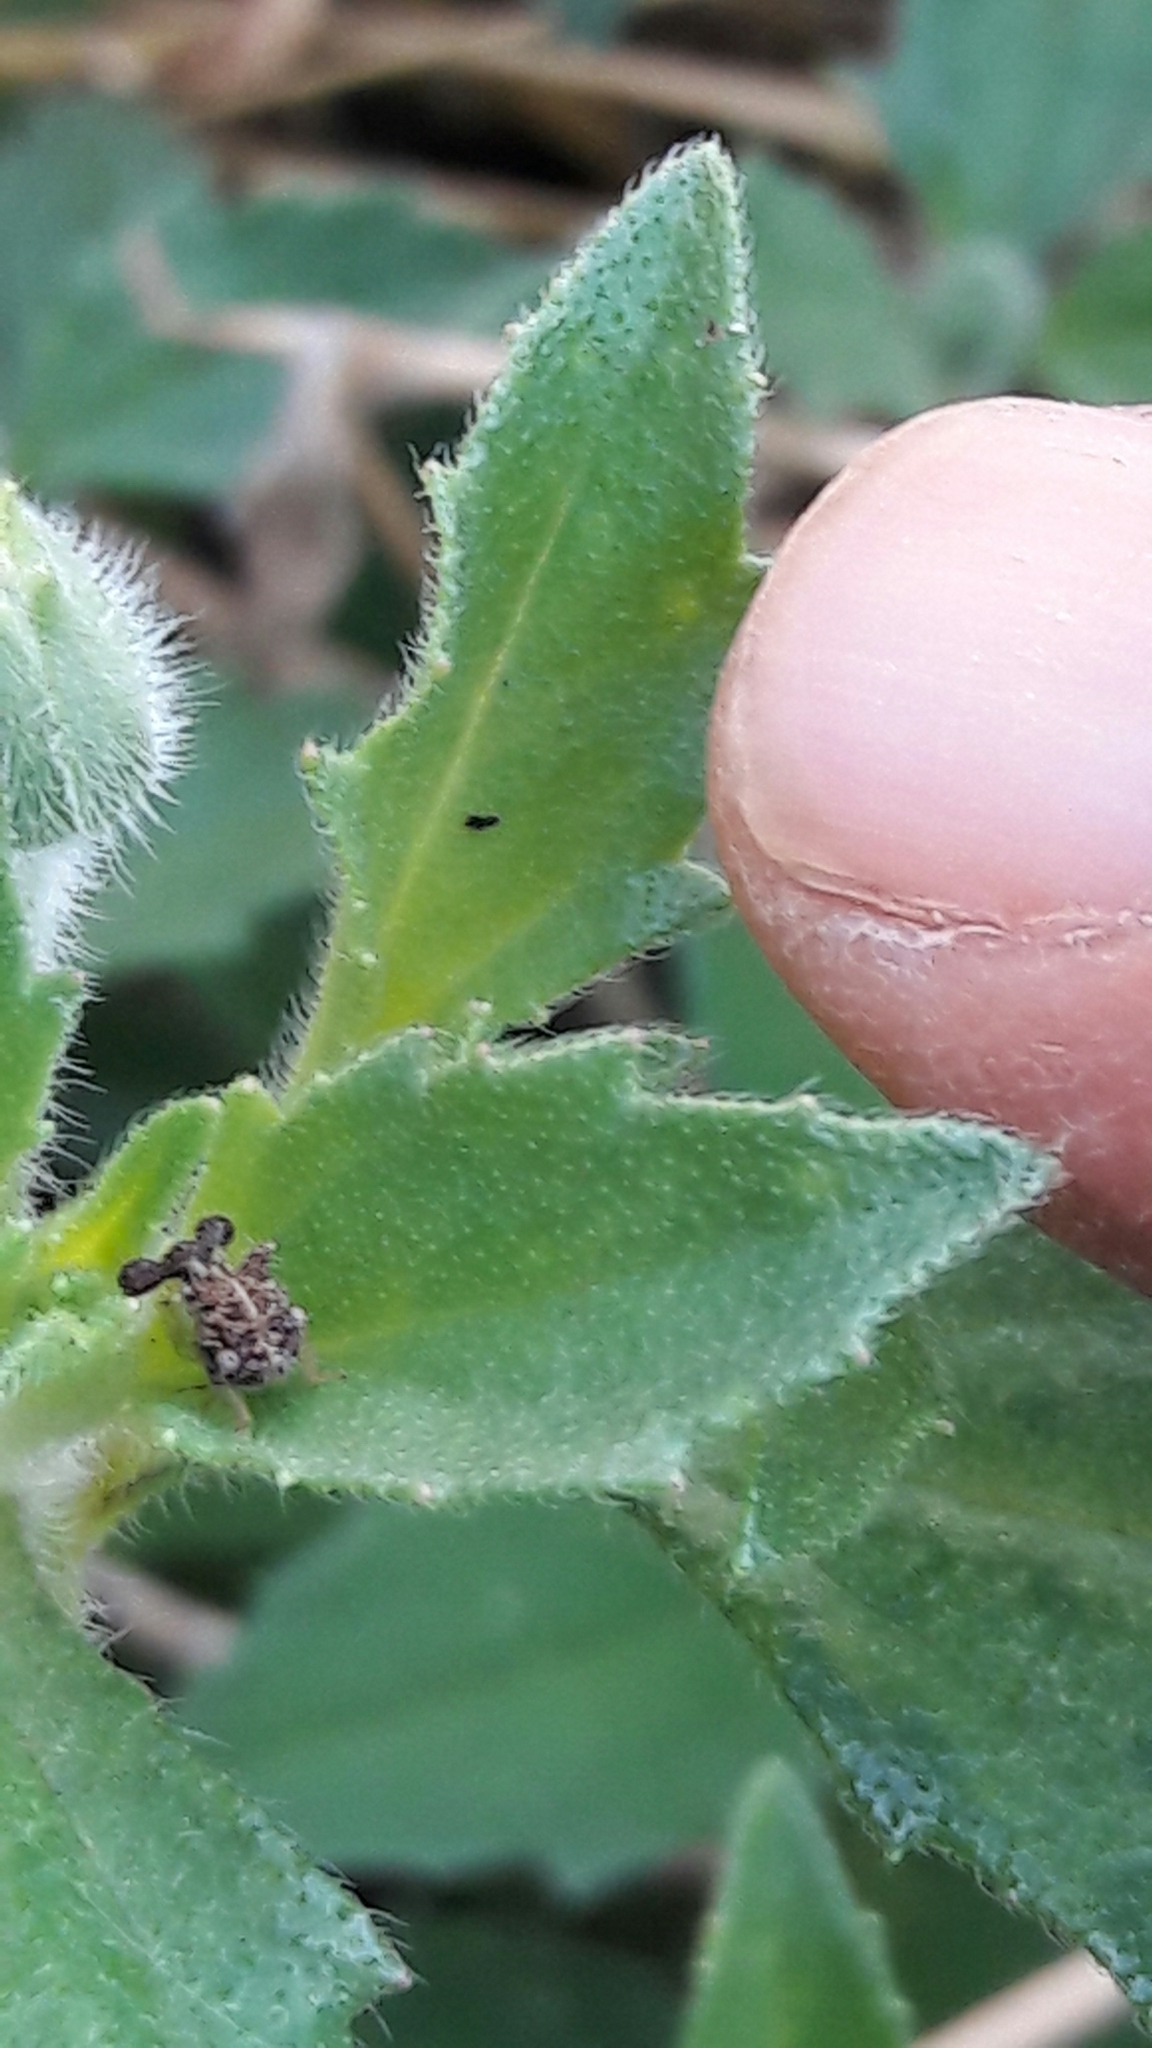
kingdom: Animalia
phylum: Arthropoda
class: Insecta
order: Hemiptera
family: Membracidae
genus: Cyphonia
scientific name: Cyphonia claviger
